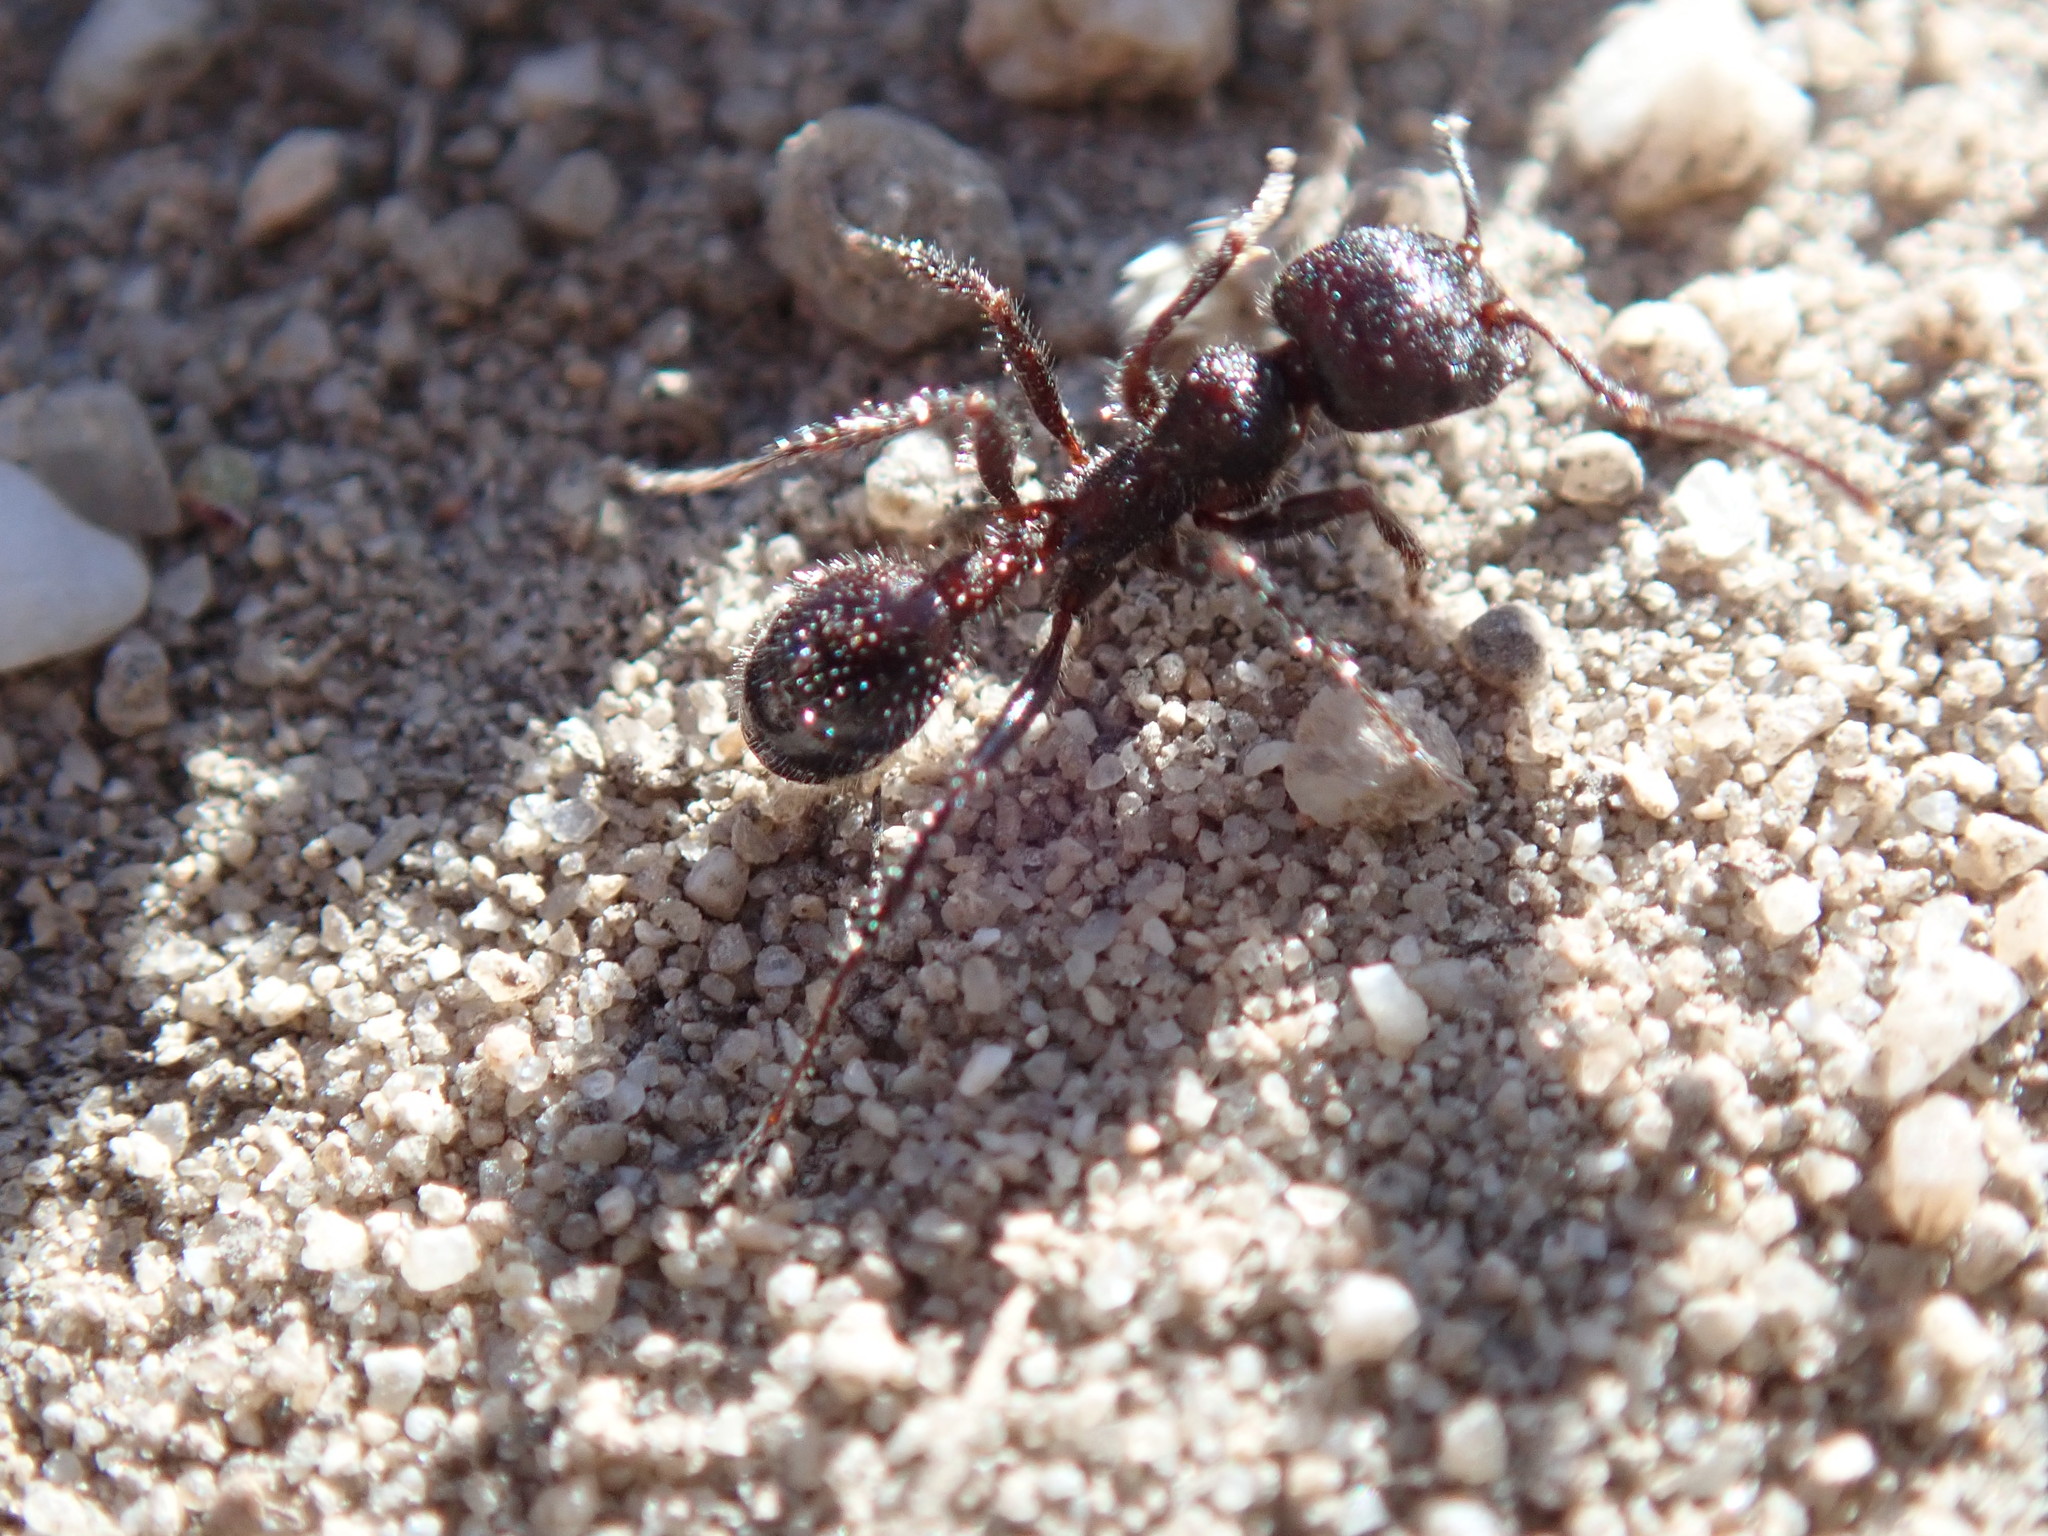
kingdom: Animalia
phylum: Arthropoda
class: Insecta
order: Hymenoptera
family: Formicidae
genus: Veromessor
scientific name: Veromessor andrei
